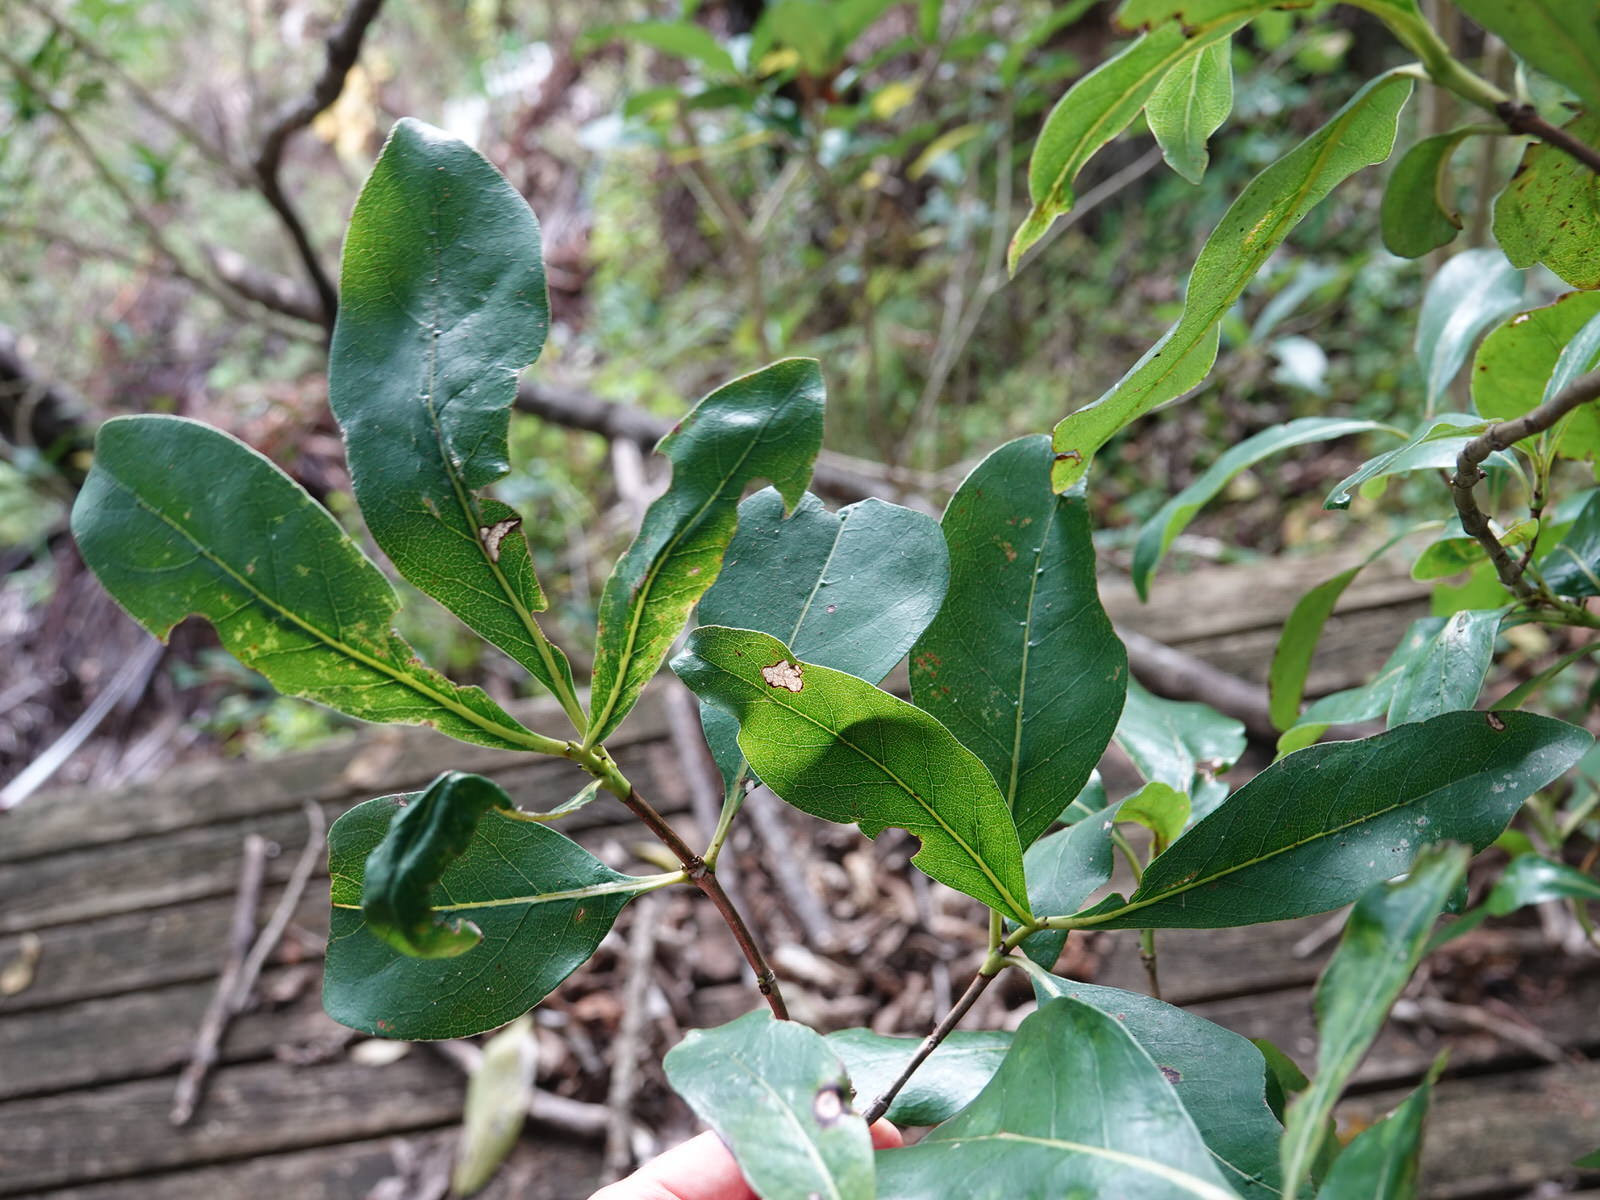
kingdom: Plantae
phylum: Tracheophyta
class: Magnoliopsida
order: Gentianales
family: Rubiaceae
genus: Coprosma
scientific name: Coprosma lucida
